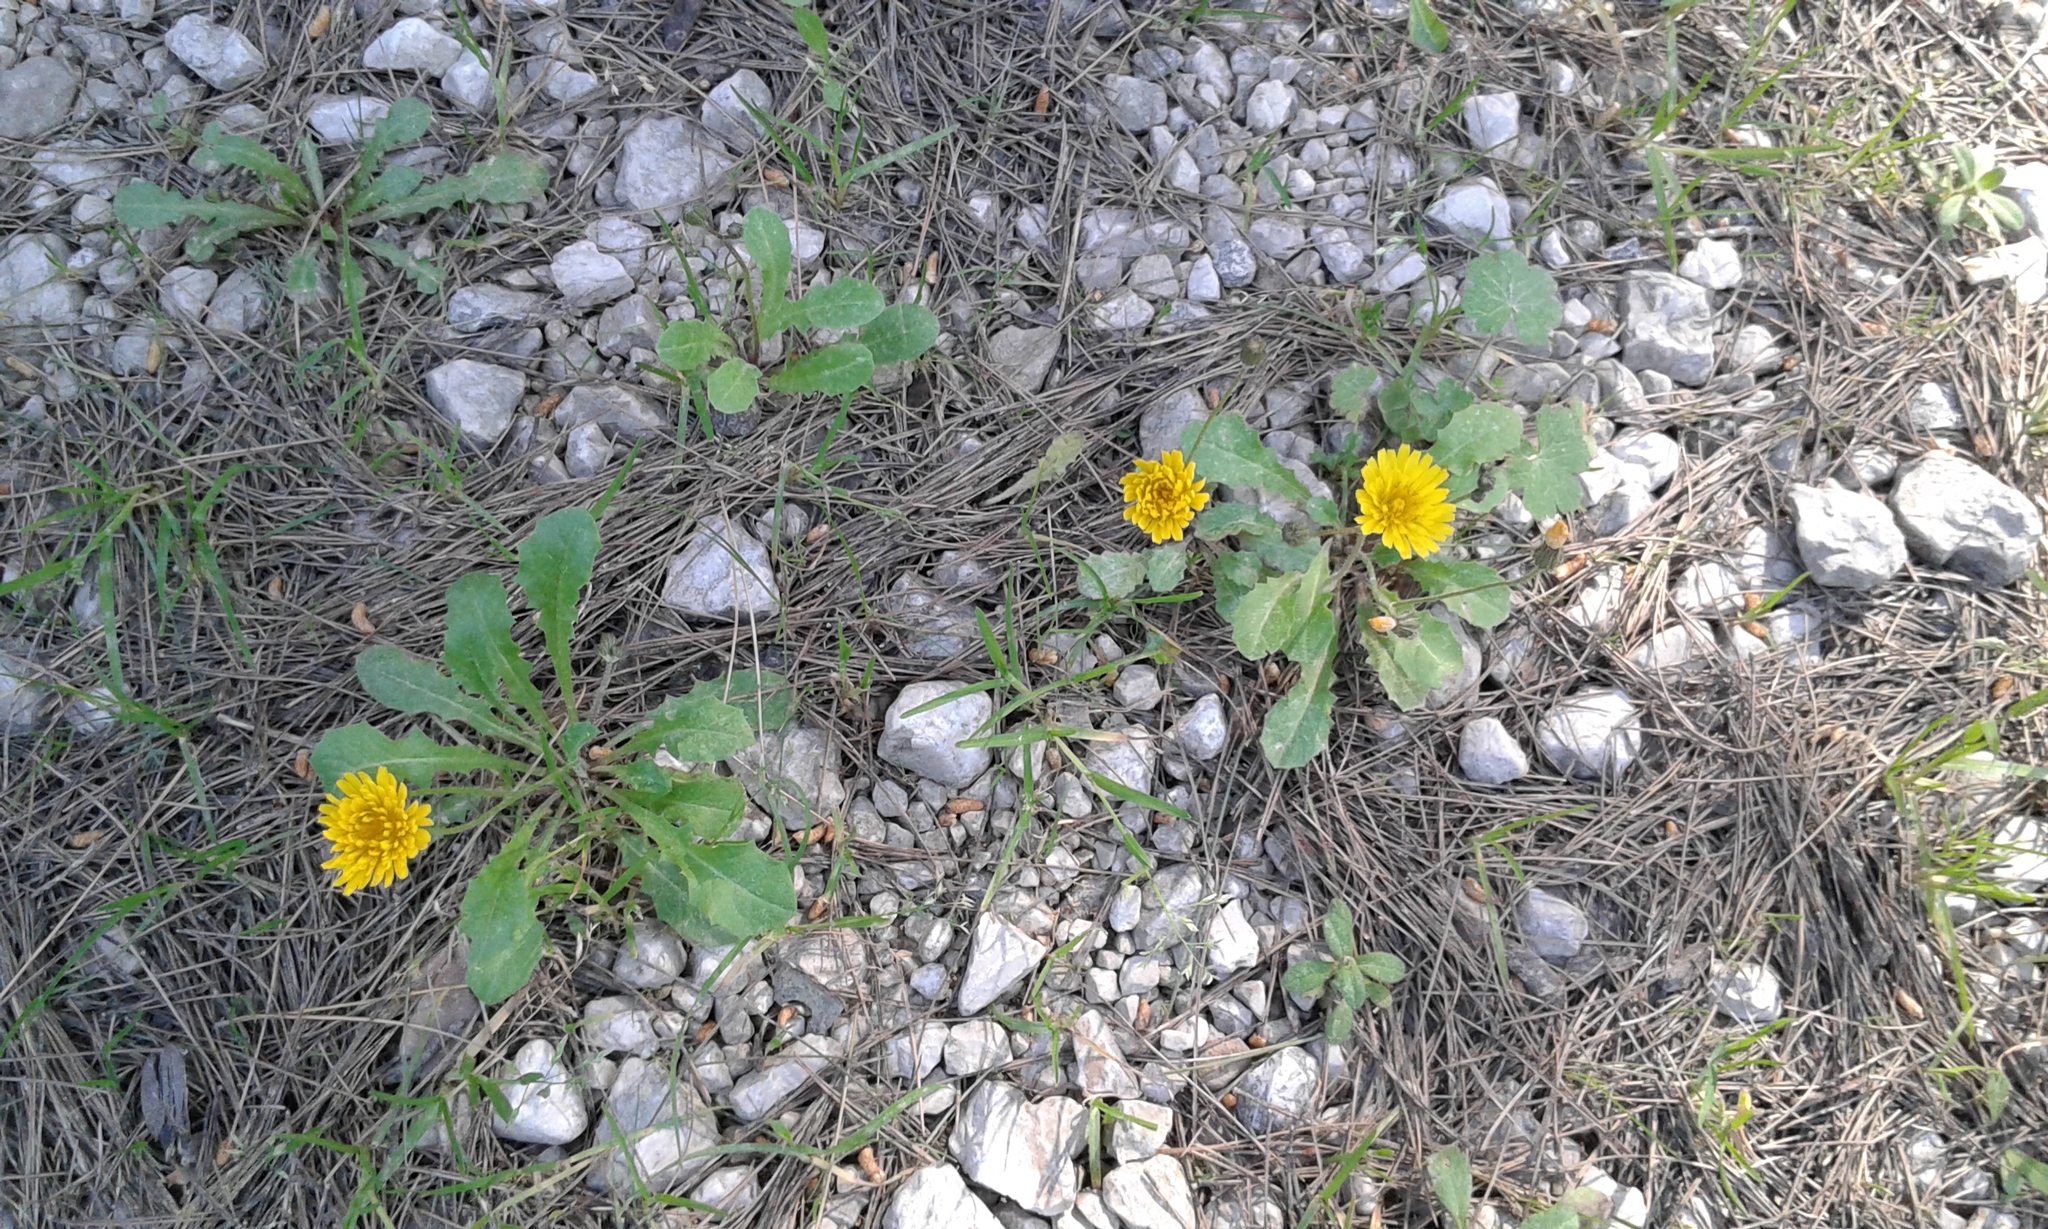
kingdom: Plantae
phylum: Tracheophyta
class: Magnoliopsida
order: Asterales
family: Asteraceae
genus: Crepis
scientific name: Crepis sancta
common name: Hawk's-beard
